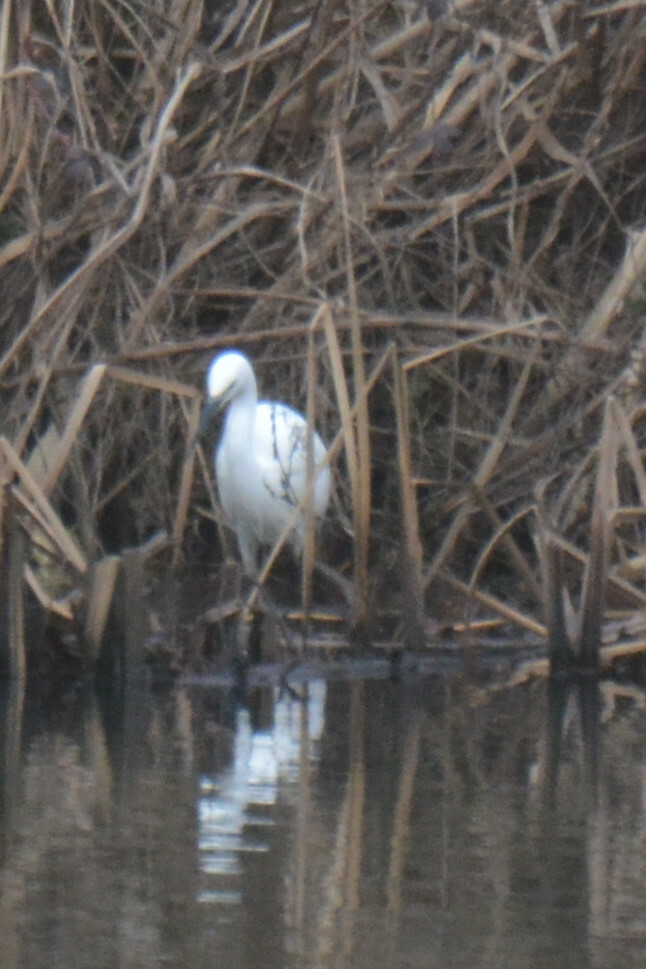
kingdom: Animalia
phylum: Chordata
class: Aves
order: Pelecaniformes
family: Ardeidae
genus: Egretta
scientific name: Egretta garzetta
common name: Little egret
